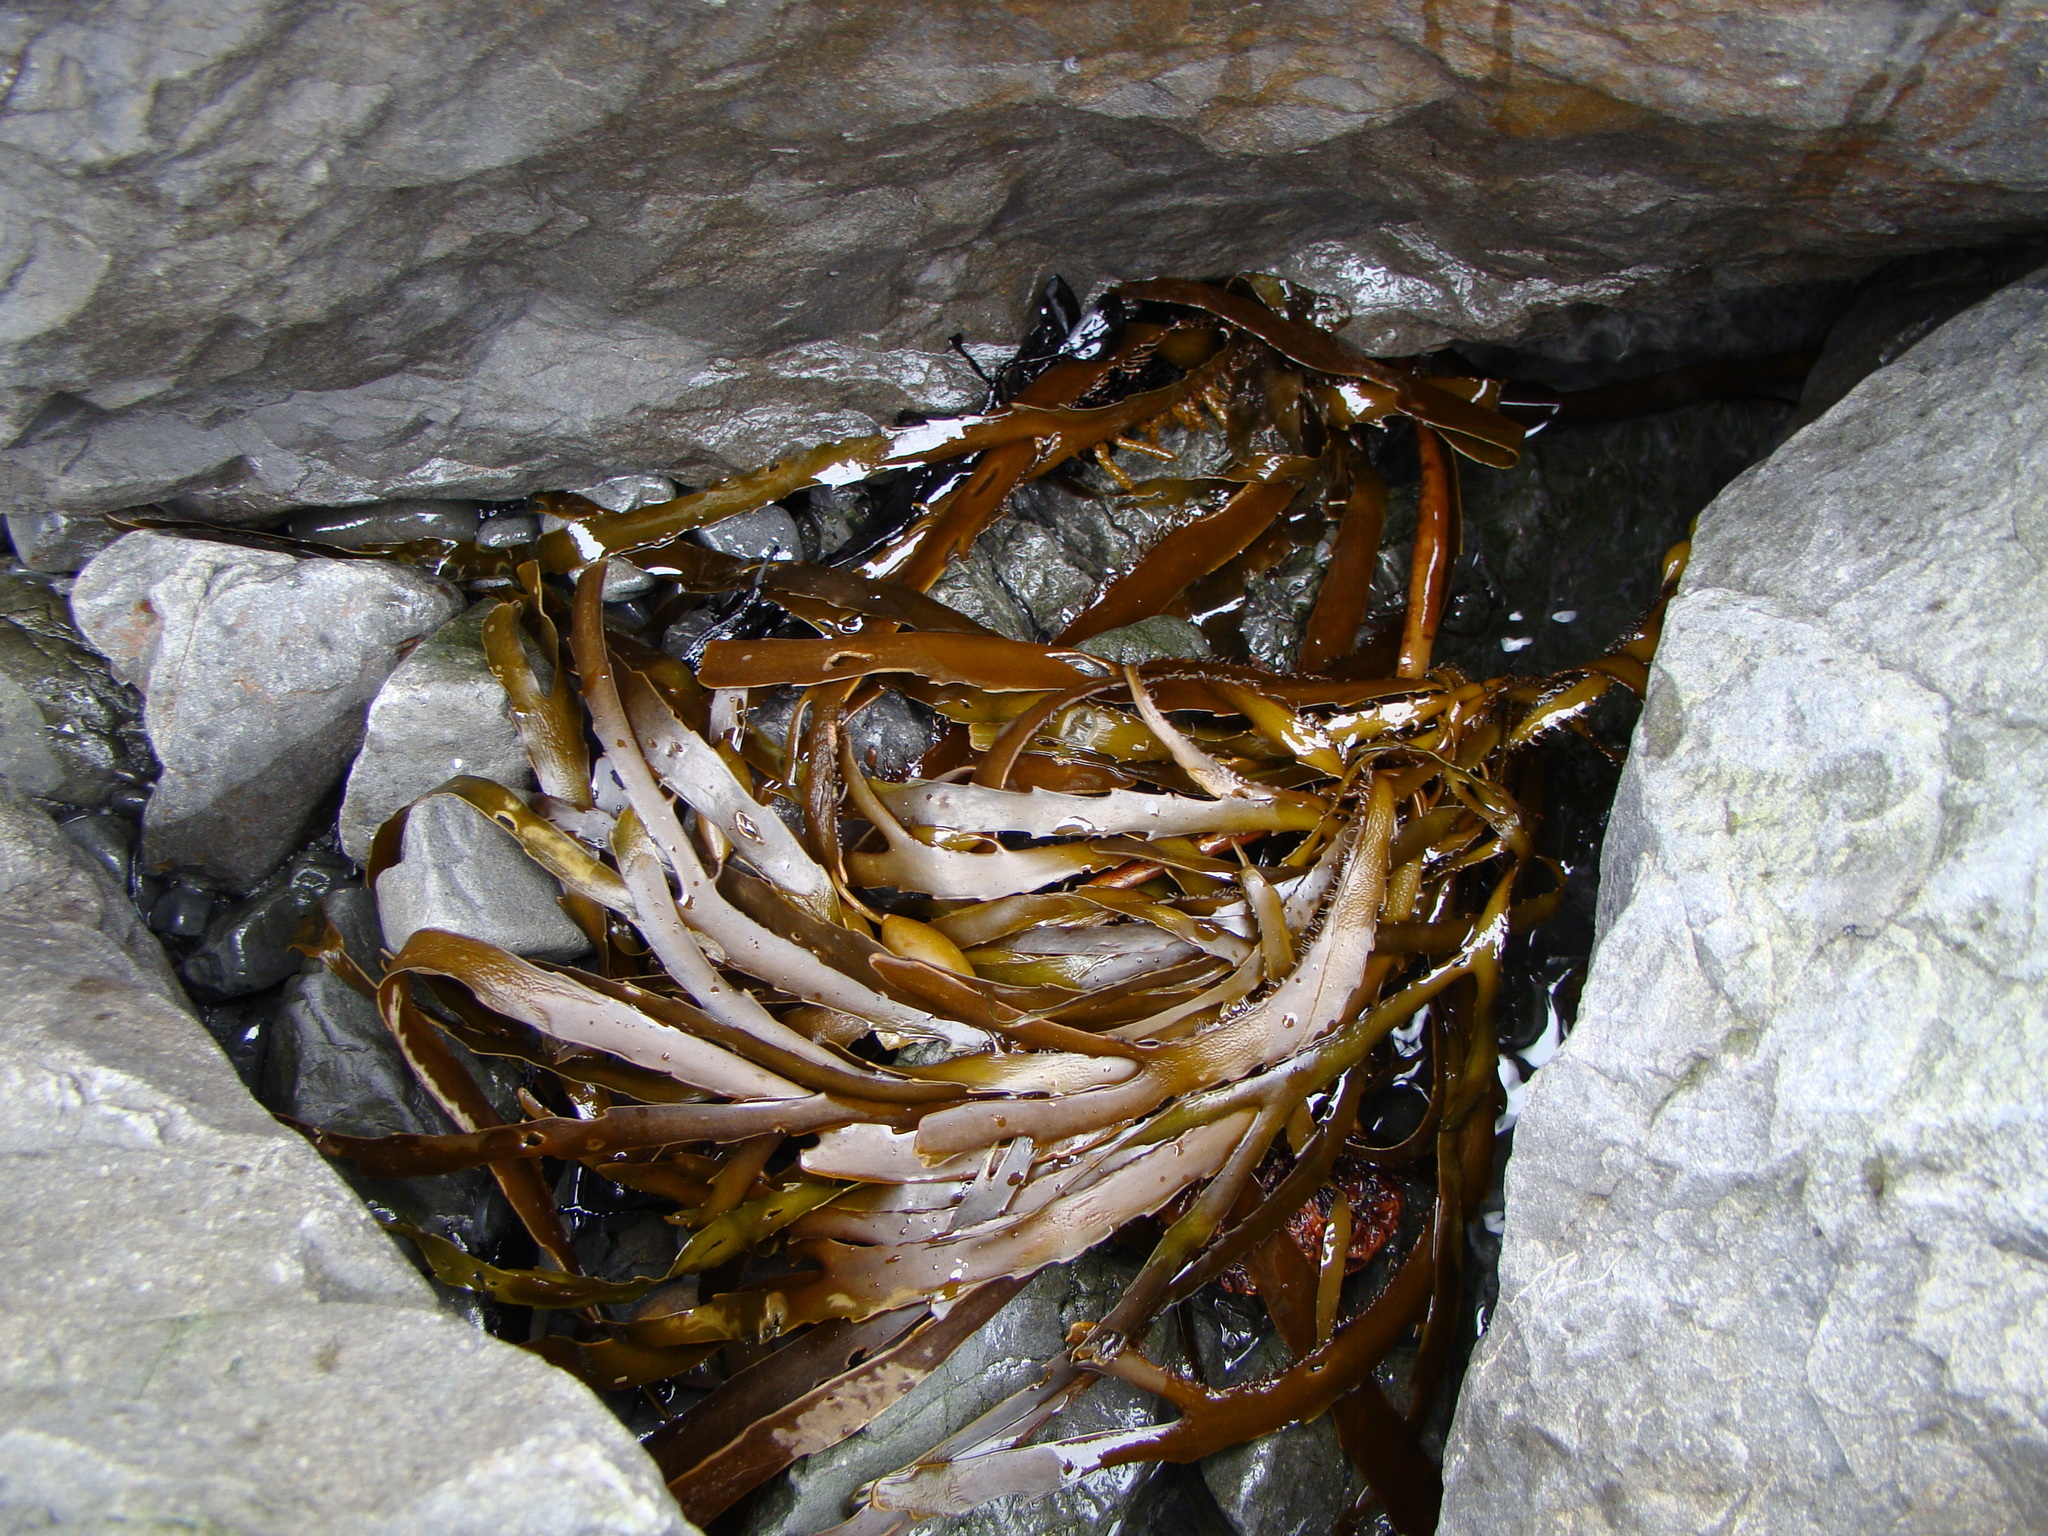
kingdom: Chromista
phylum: Ochrophyta
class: Phaeophyceae
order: Fucales
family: Seirococcaceae
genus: Marginariella
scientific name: Marginariella boryana
